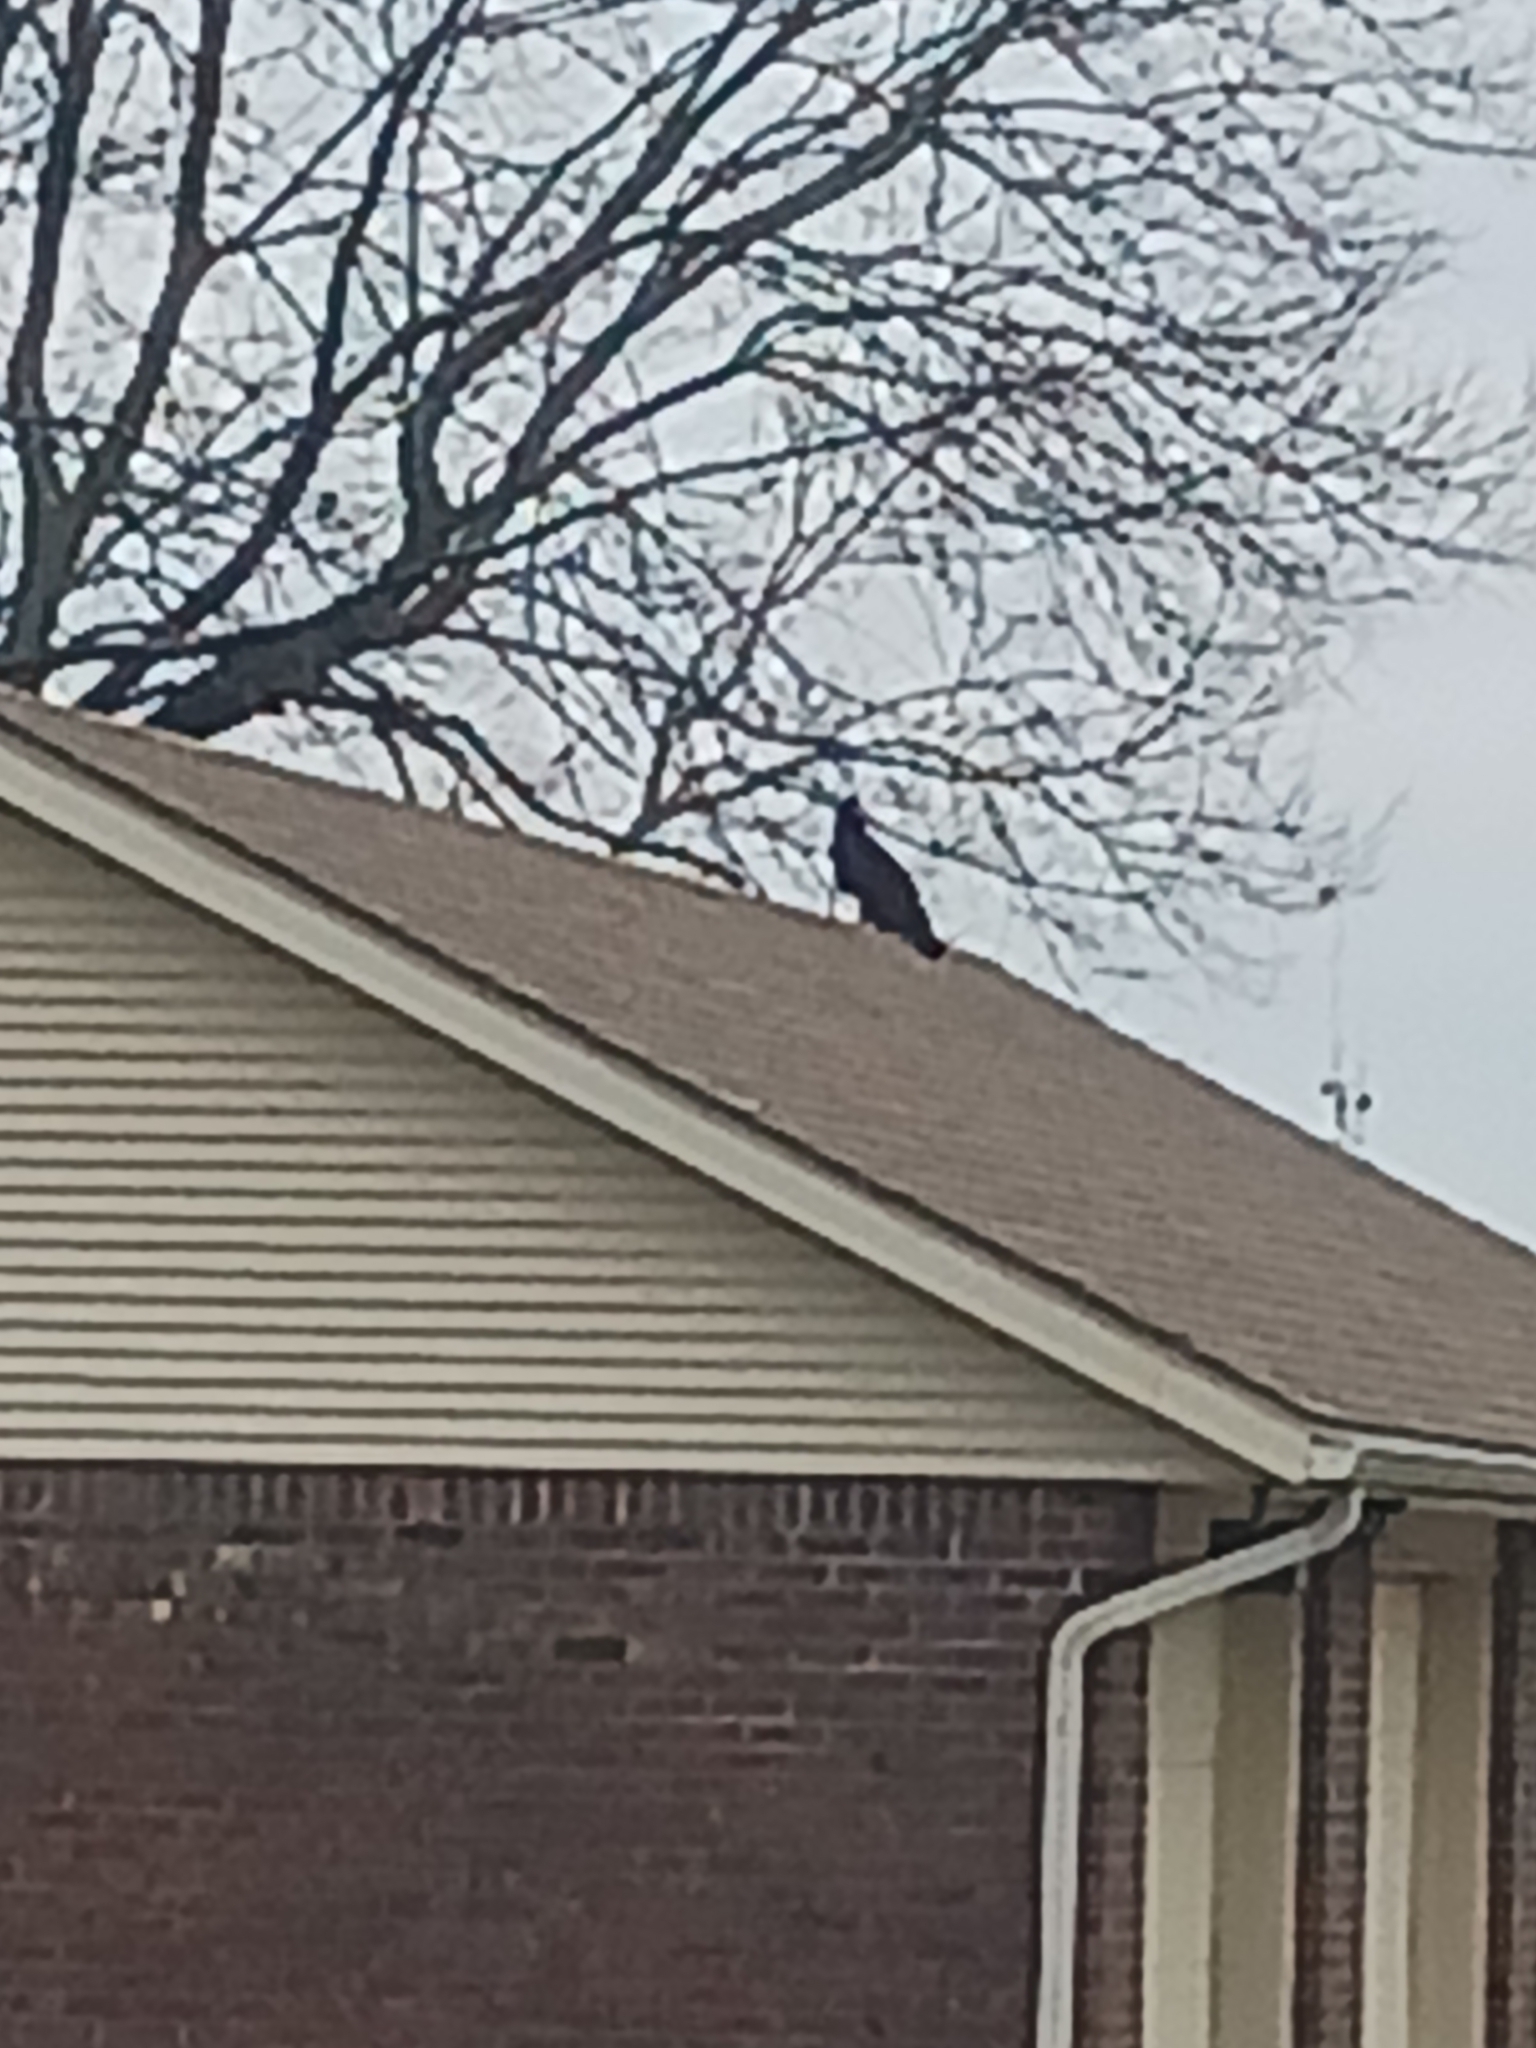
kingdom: Animalia
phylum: Chordata
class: Aves
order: Accipitriformes
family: Cathartidae
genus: Cathartes
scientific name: Cathartes aura
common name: Turkey vulture
